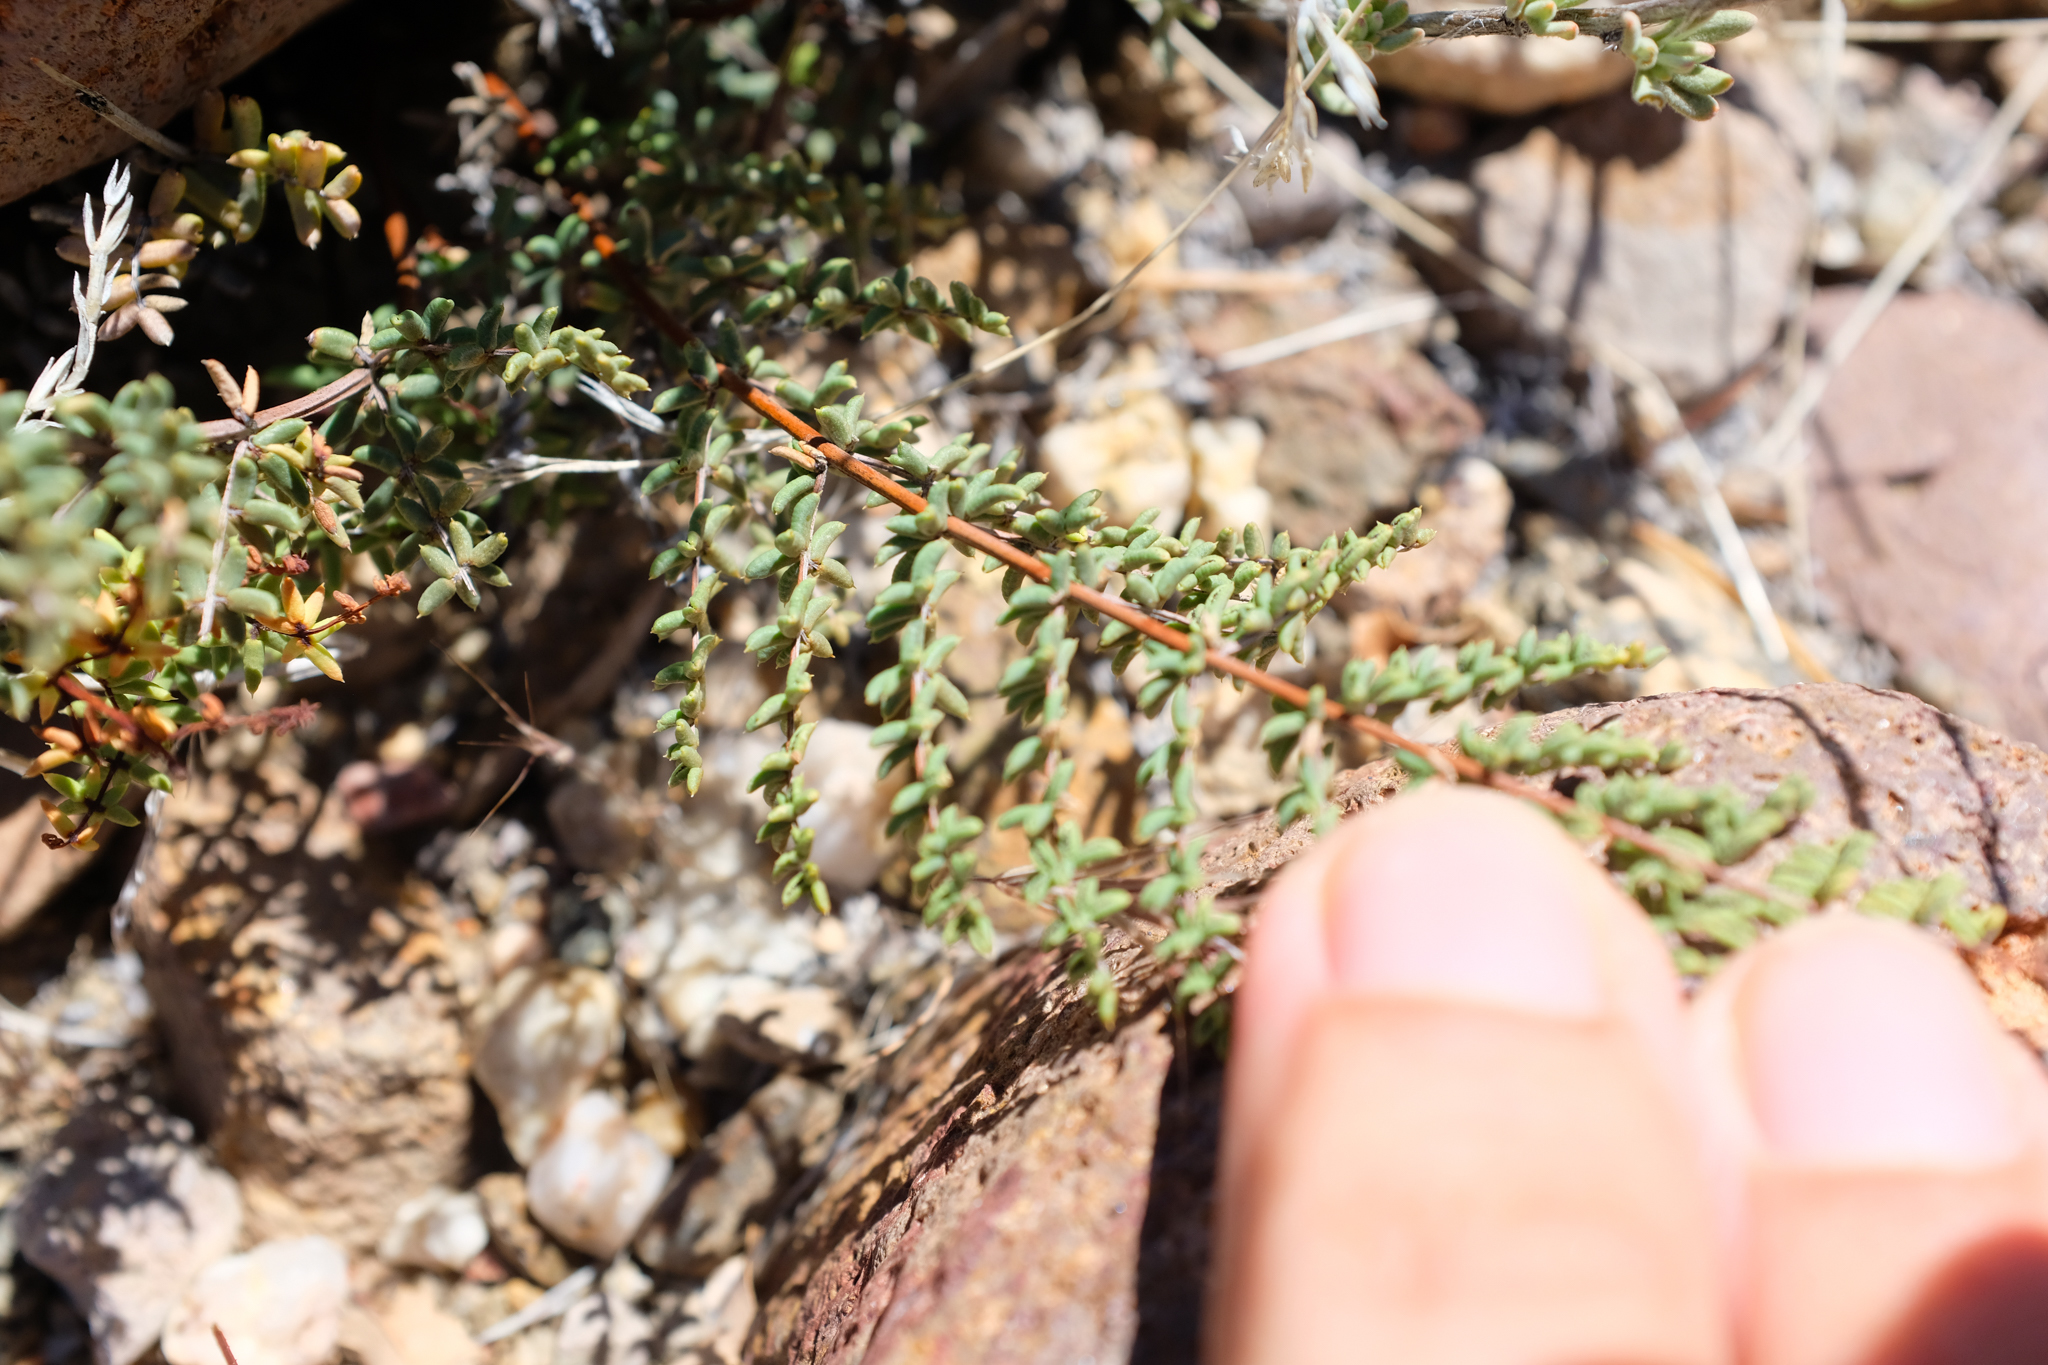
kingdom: Plantae
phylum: Tracheophyta
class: Polypodiopsida
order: Polypodiales
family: Pteridaceae
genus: Pellaea
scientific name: Pellaea mucronata
